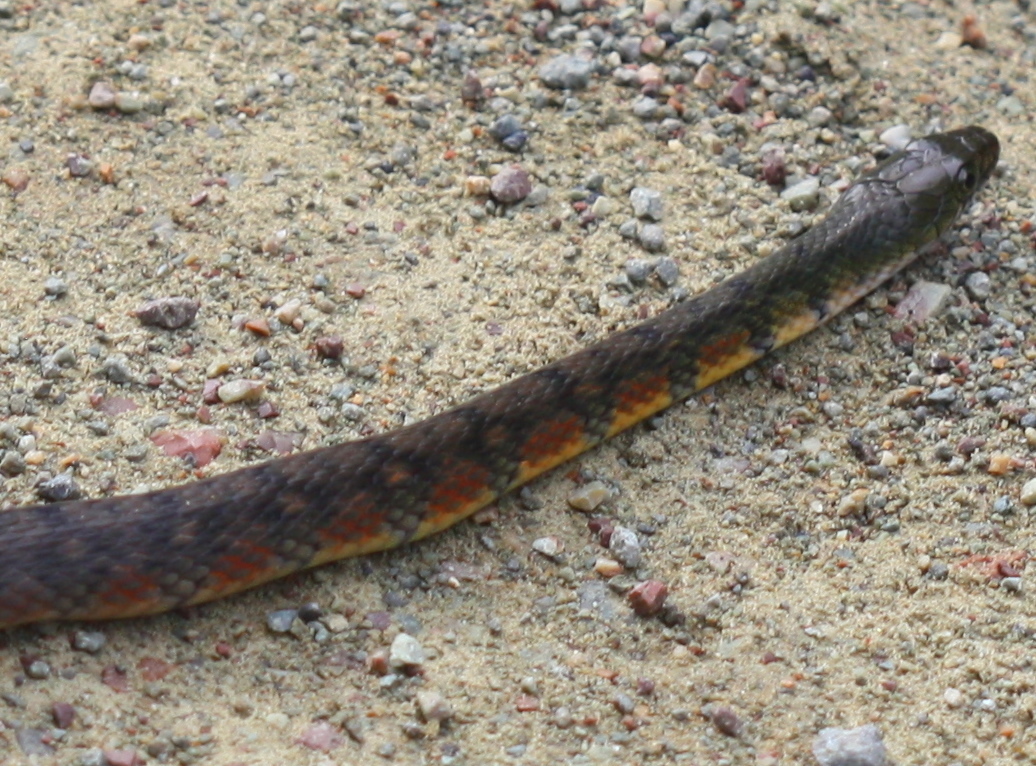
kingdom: Animalia
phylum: Chordata
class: Squamata
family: Colubridae
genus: Xenochrophis
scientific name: Xenochrophis trianguligerus
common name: Triangle keelback
